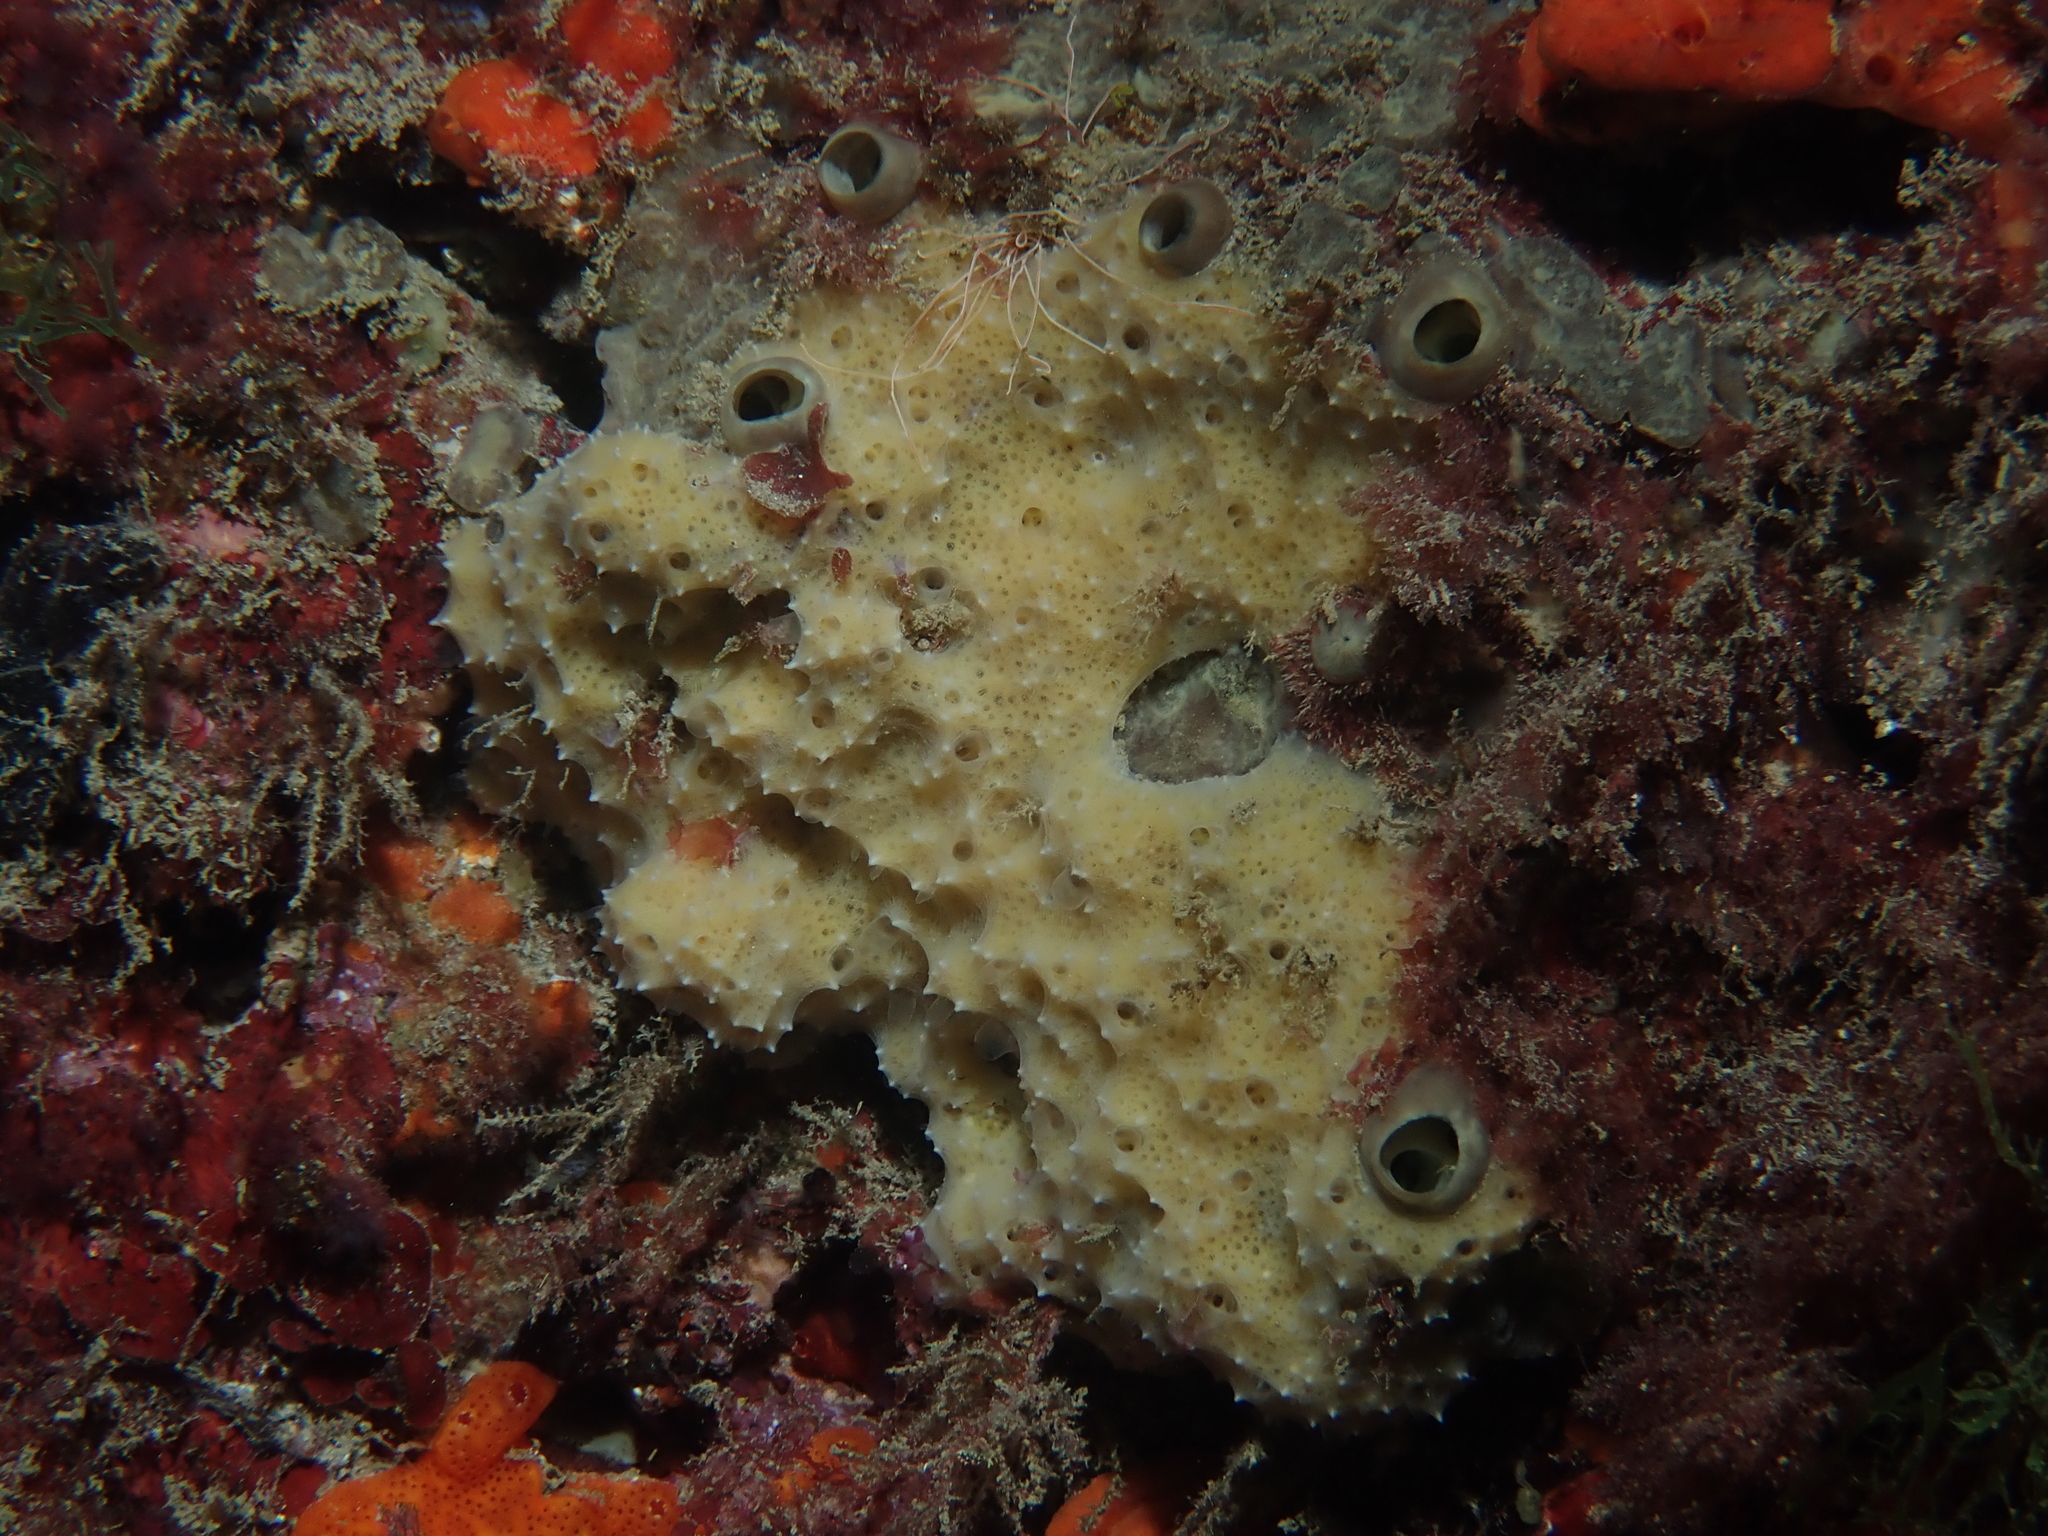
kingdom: Animalia
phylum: Porifera
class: Demospongiae
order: Dictyoceratida
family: Dysideidae
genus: Dysidea
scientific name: Dysidea fragilis
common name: Goosebump sponge
